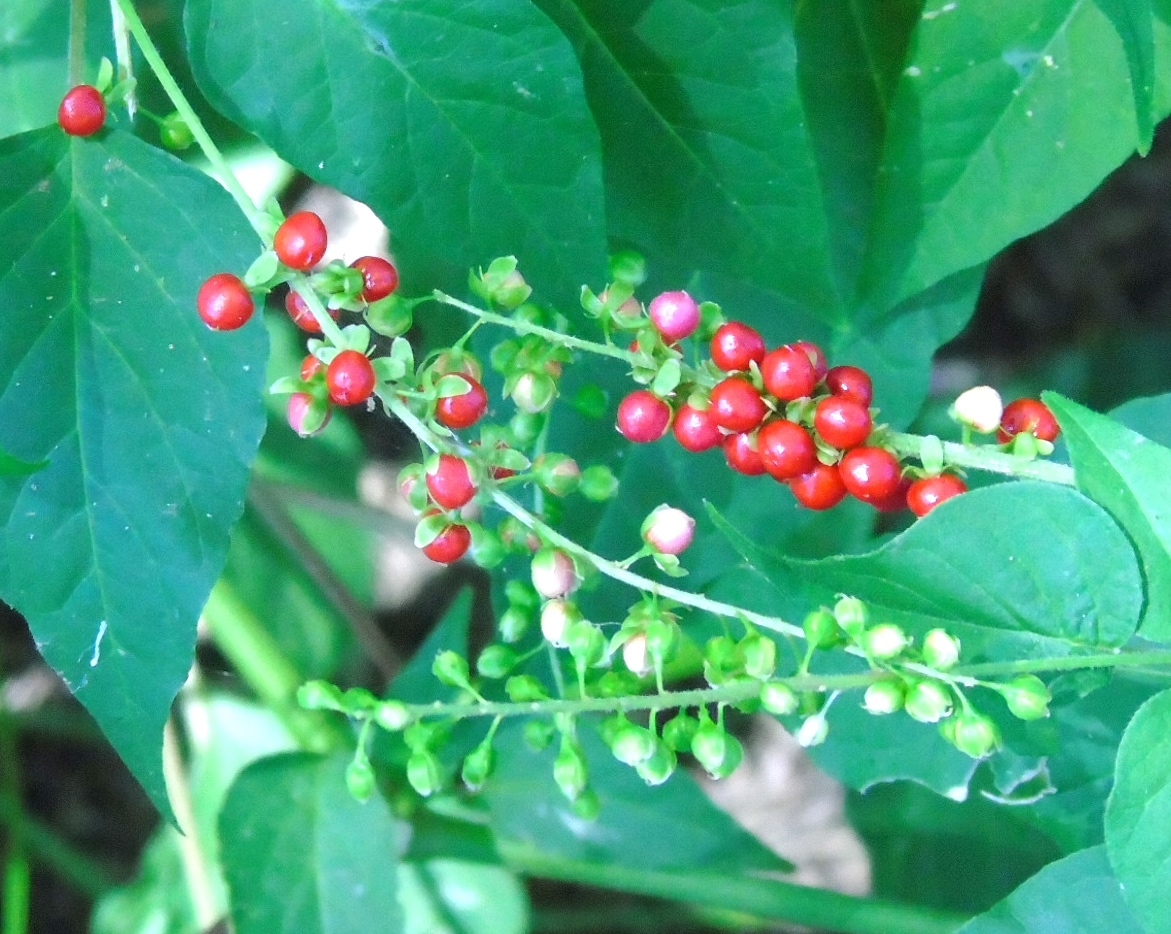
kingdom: Plantae
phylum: Tracheophyta
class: Magnoliopsida
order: Caryophyllales
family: Phytolaccaceae
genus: Rivina
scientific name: Rivina humilis
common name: Rougeplant
